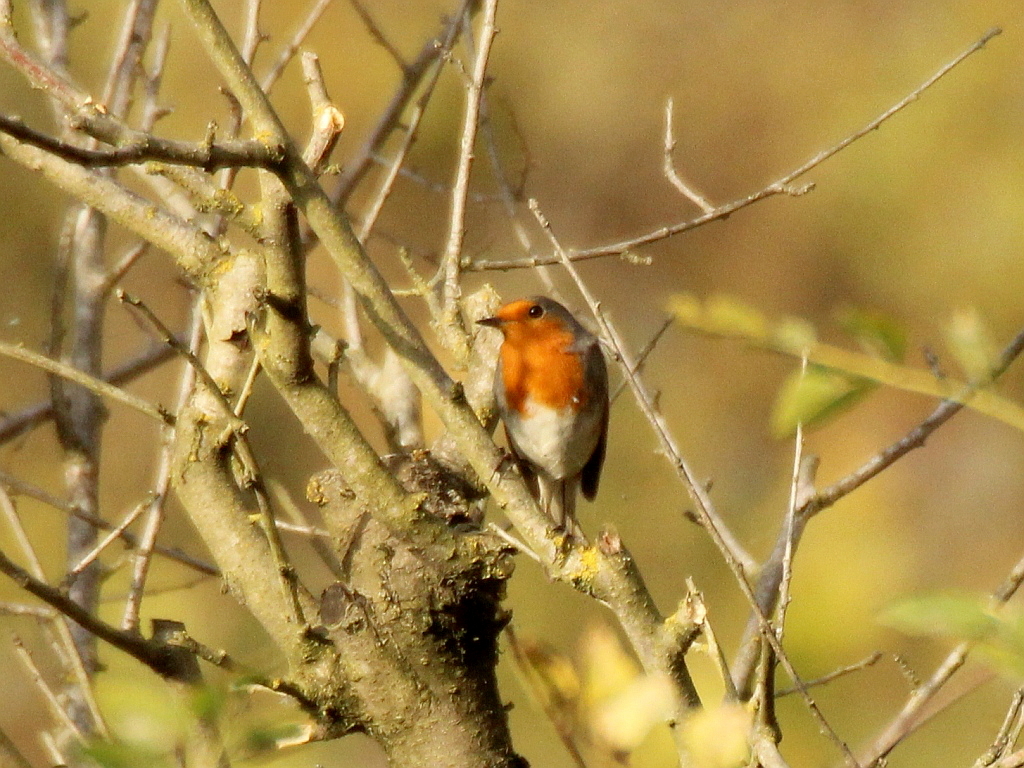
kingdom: Animalia
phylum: Chordata
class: Aves
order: Passeriformes
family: Muscicapidae
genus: Erithacus
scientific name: Erithacus rubecula
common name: European robin
